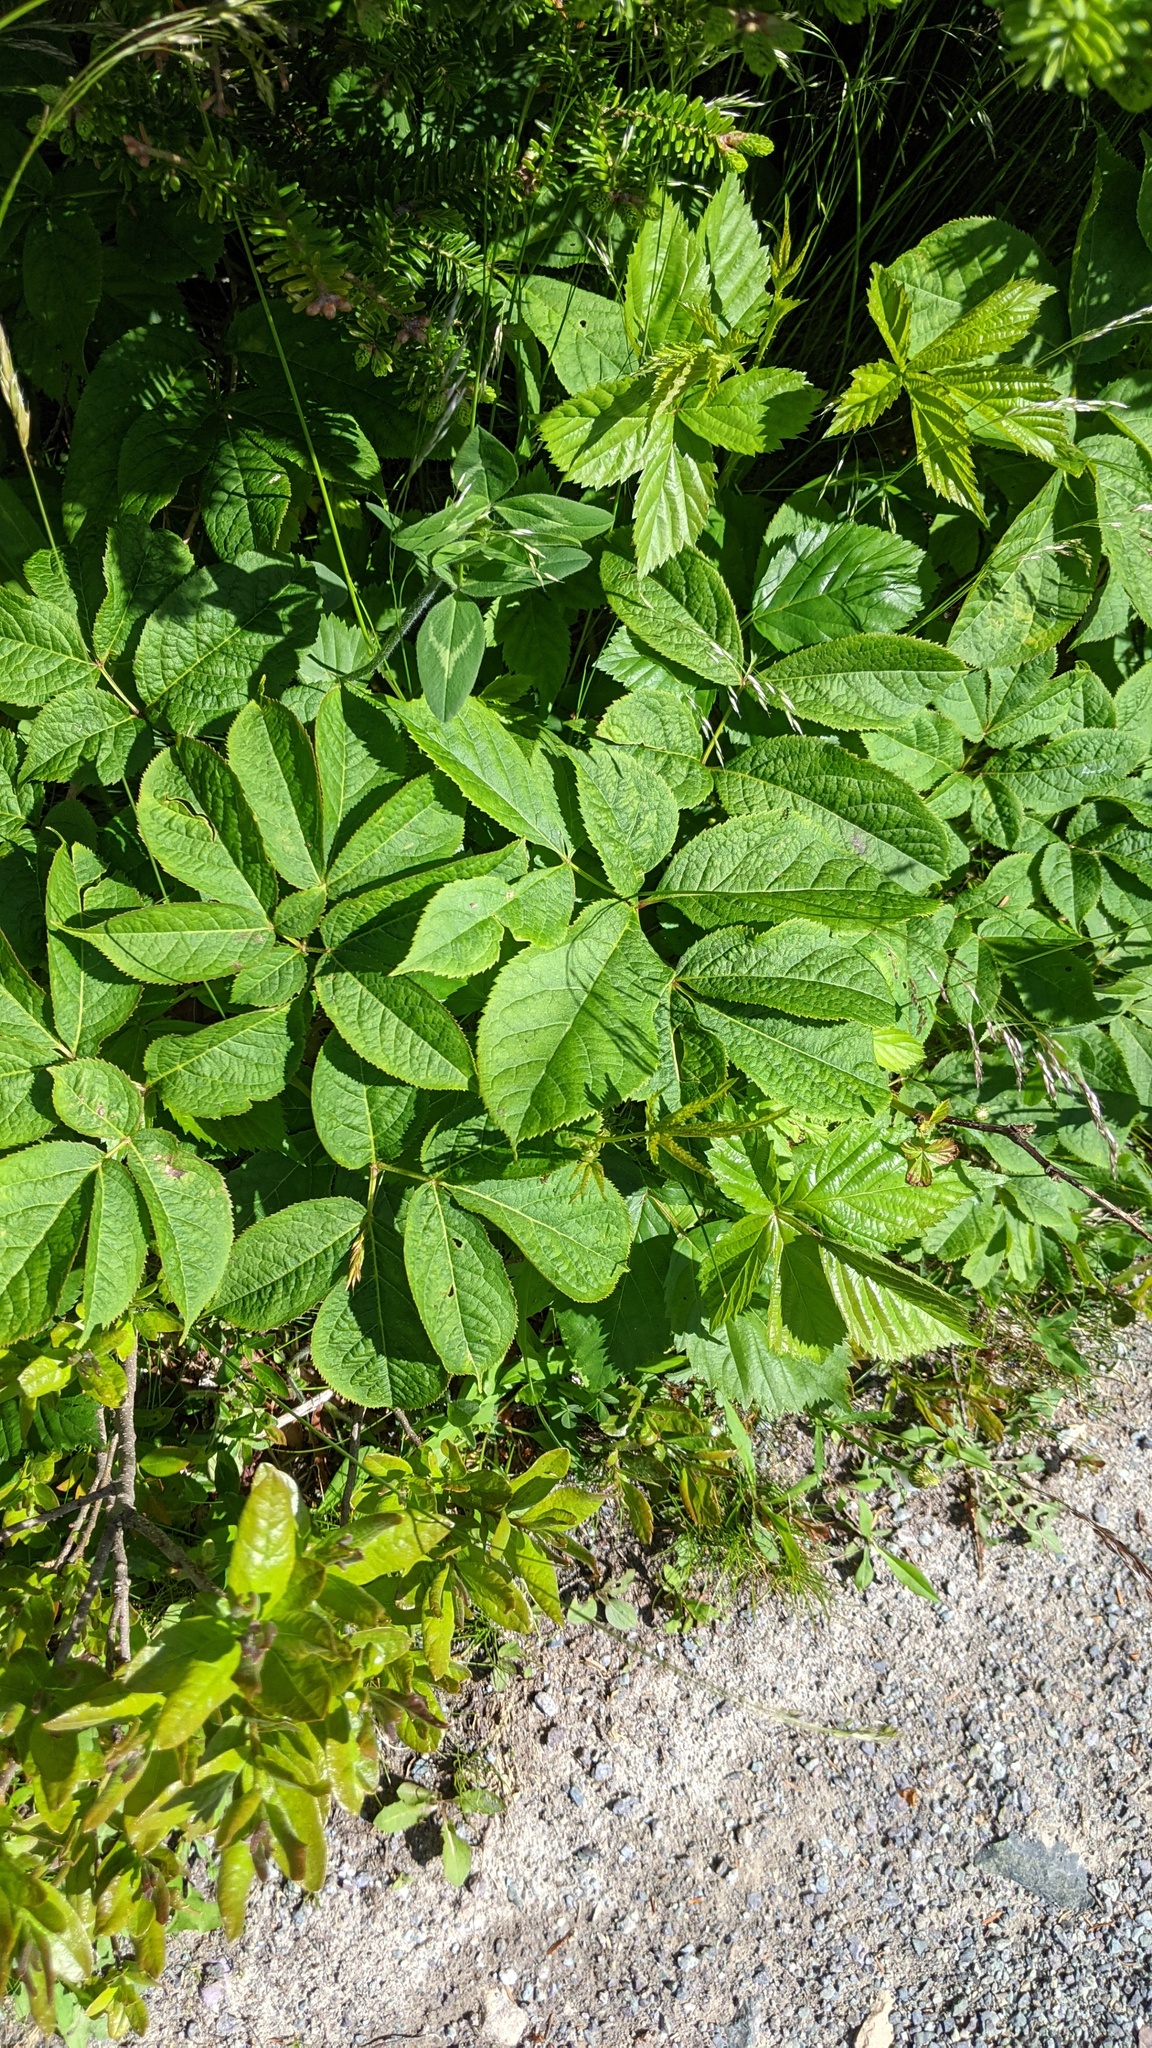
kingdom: Plantae
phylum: Tracheophyta
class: Magnoliopsida
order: Apiales
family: Araliaceae
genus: Aralia
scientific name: Aralia nudicaulis
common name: Wild sarsaparilla
